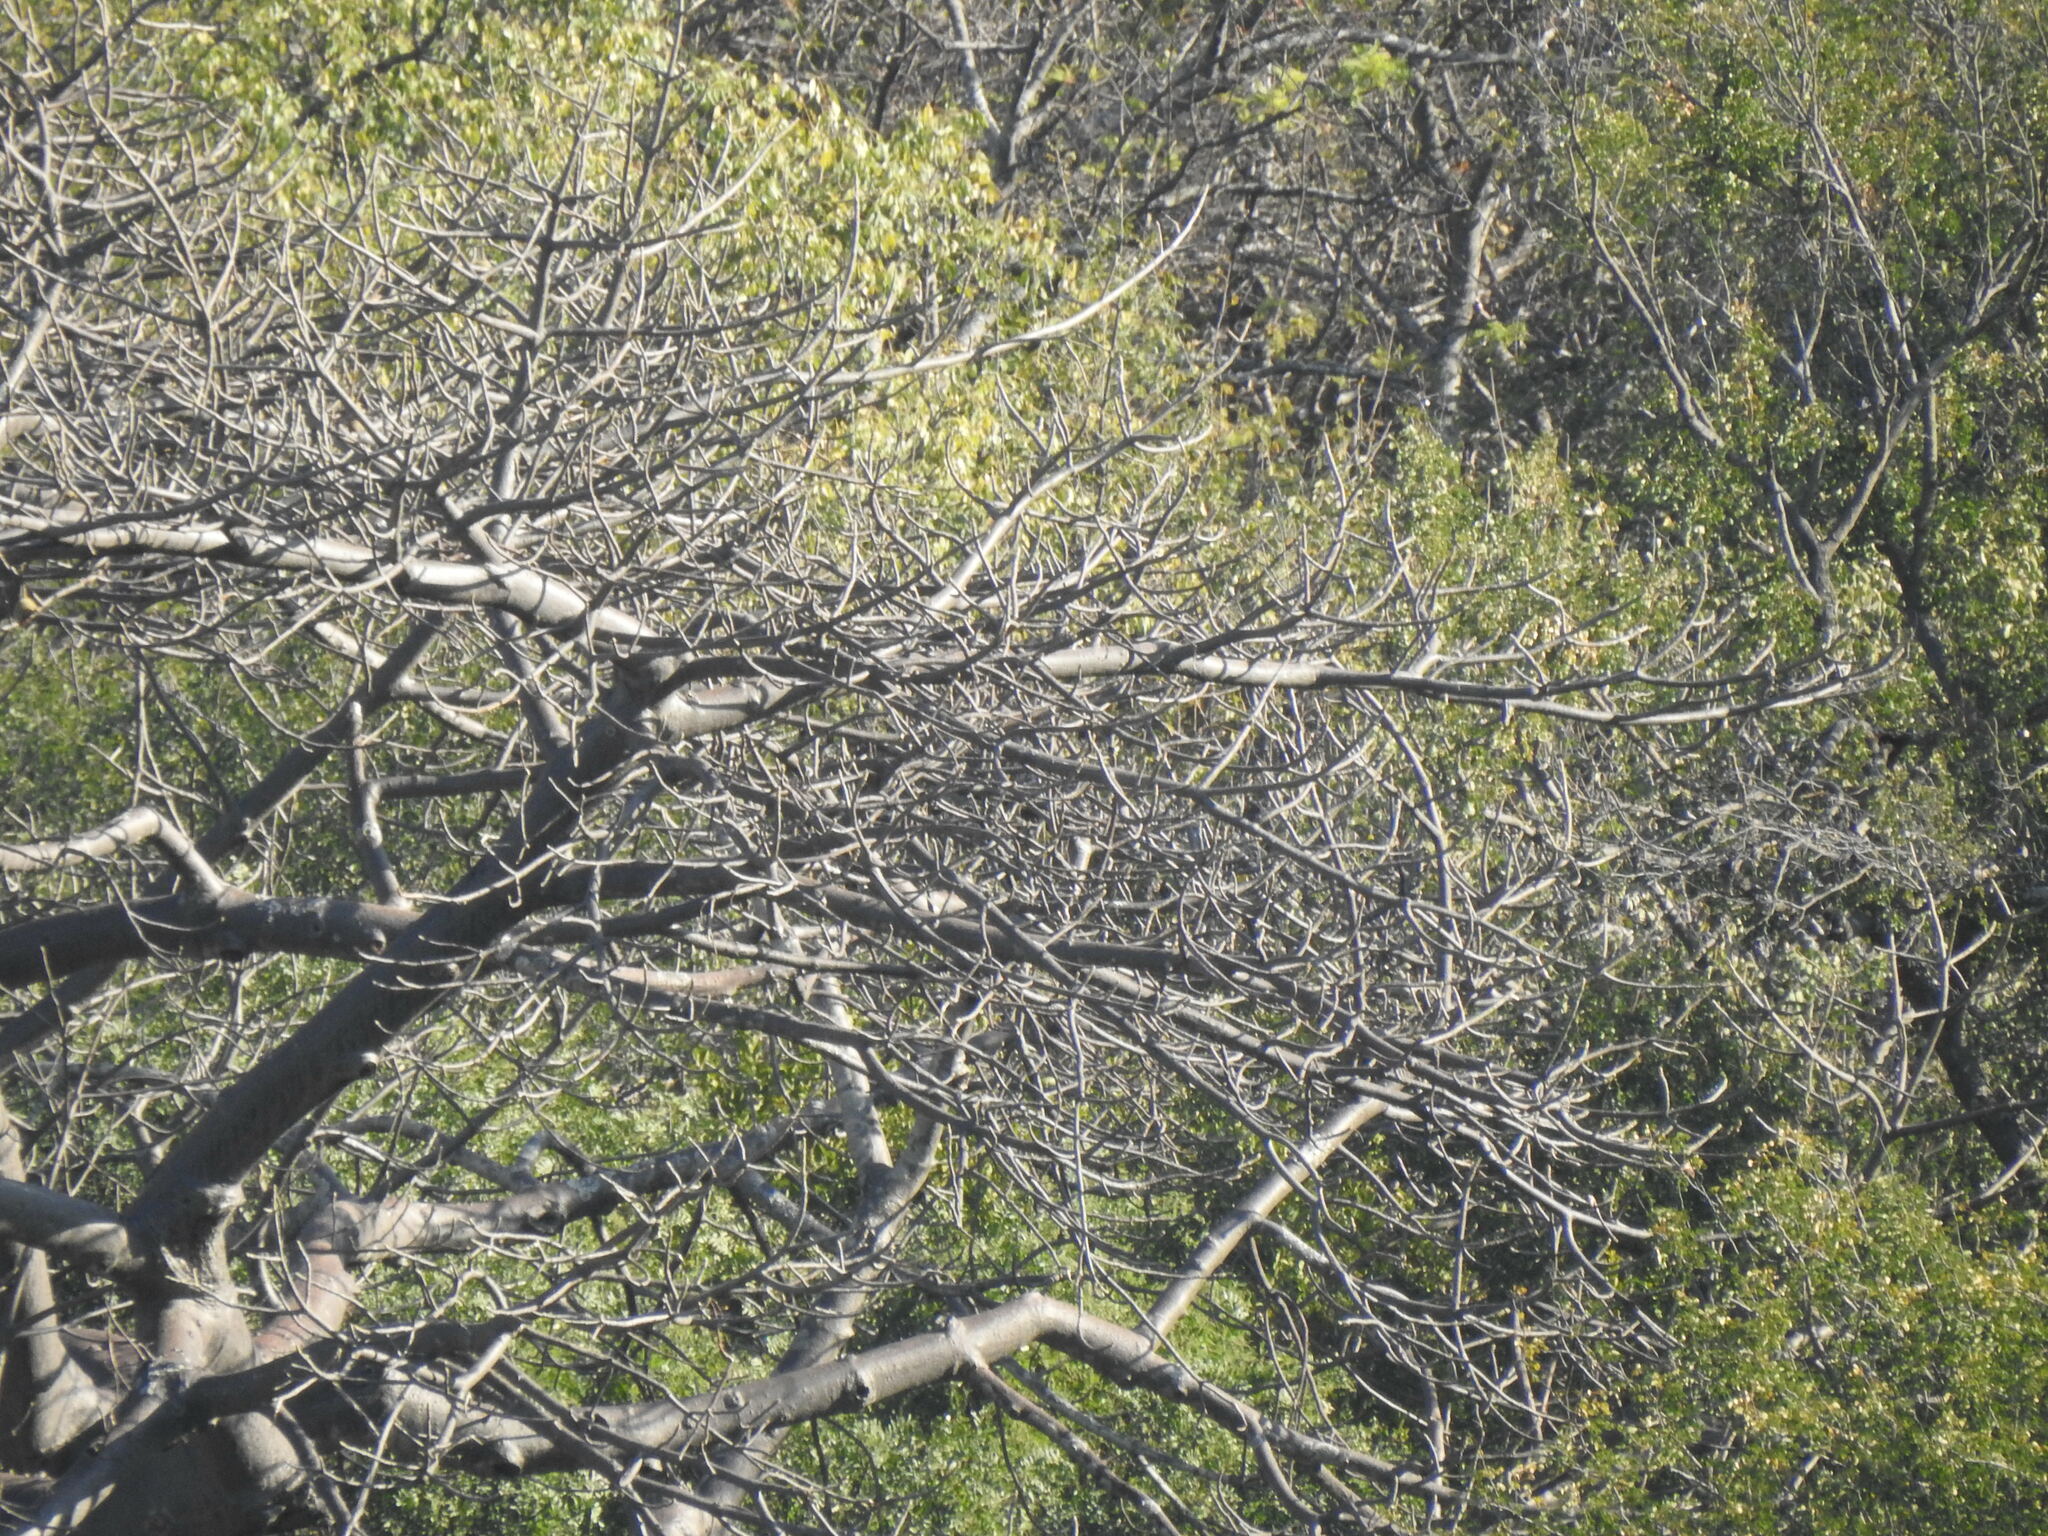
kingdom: Plantae
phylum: Tracheophyta
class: Magnoliopsida
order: Malvales
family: Malvaceae
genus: Adansonia
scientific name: Adansonia digitata
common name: Dead-rat-tree
